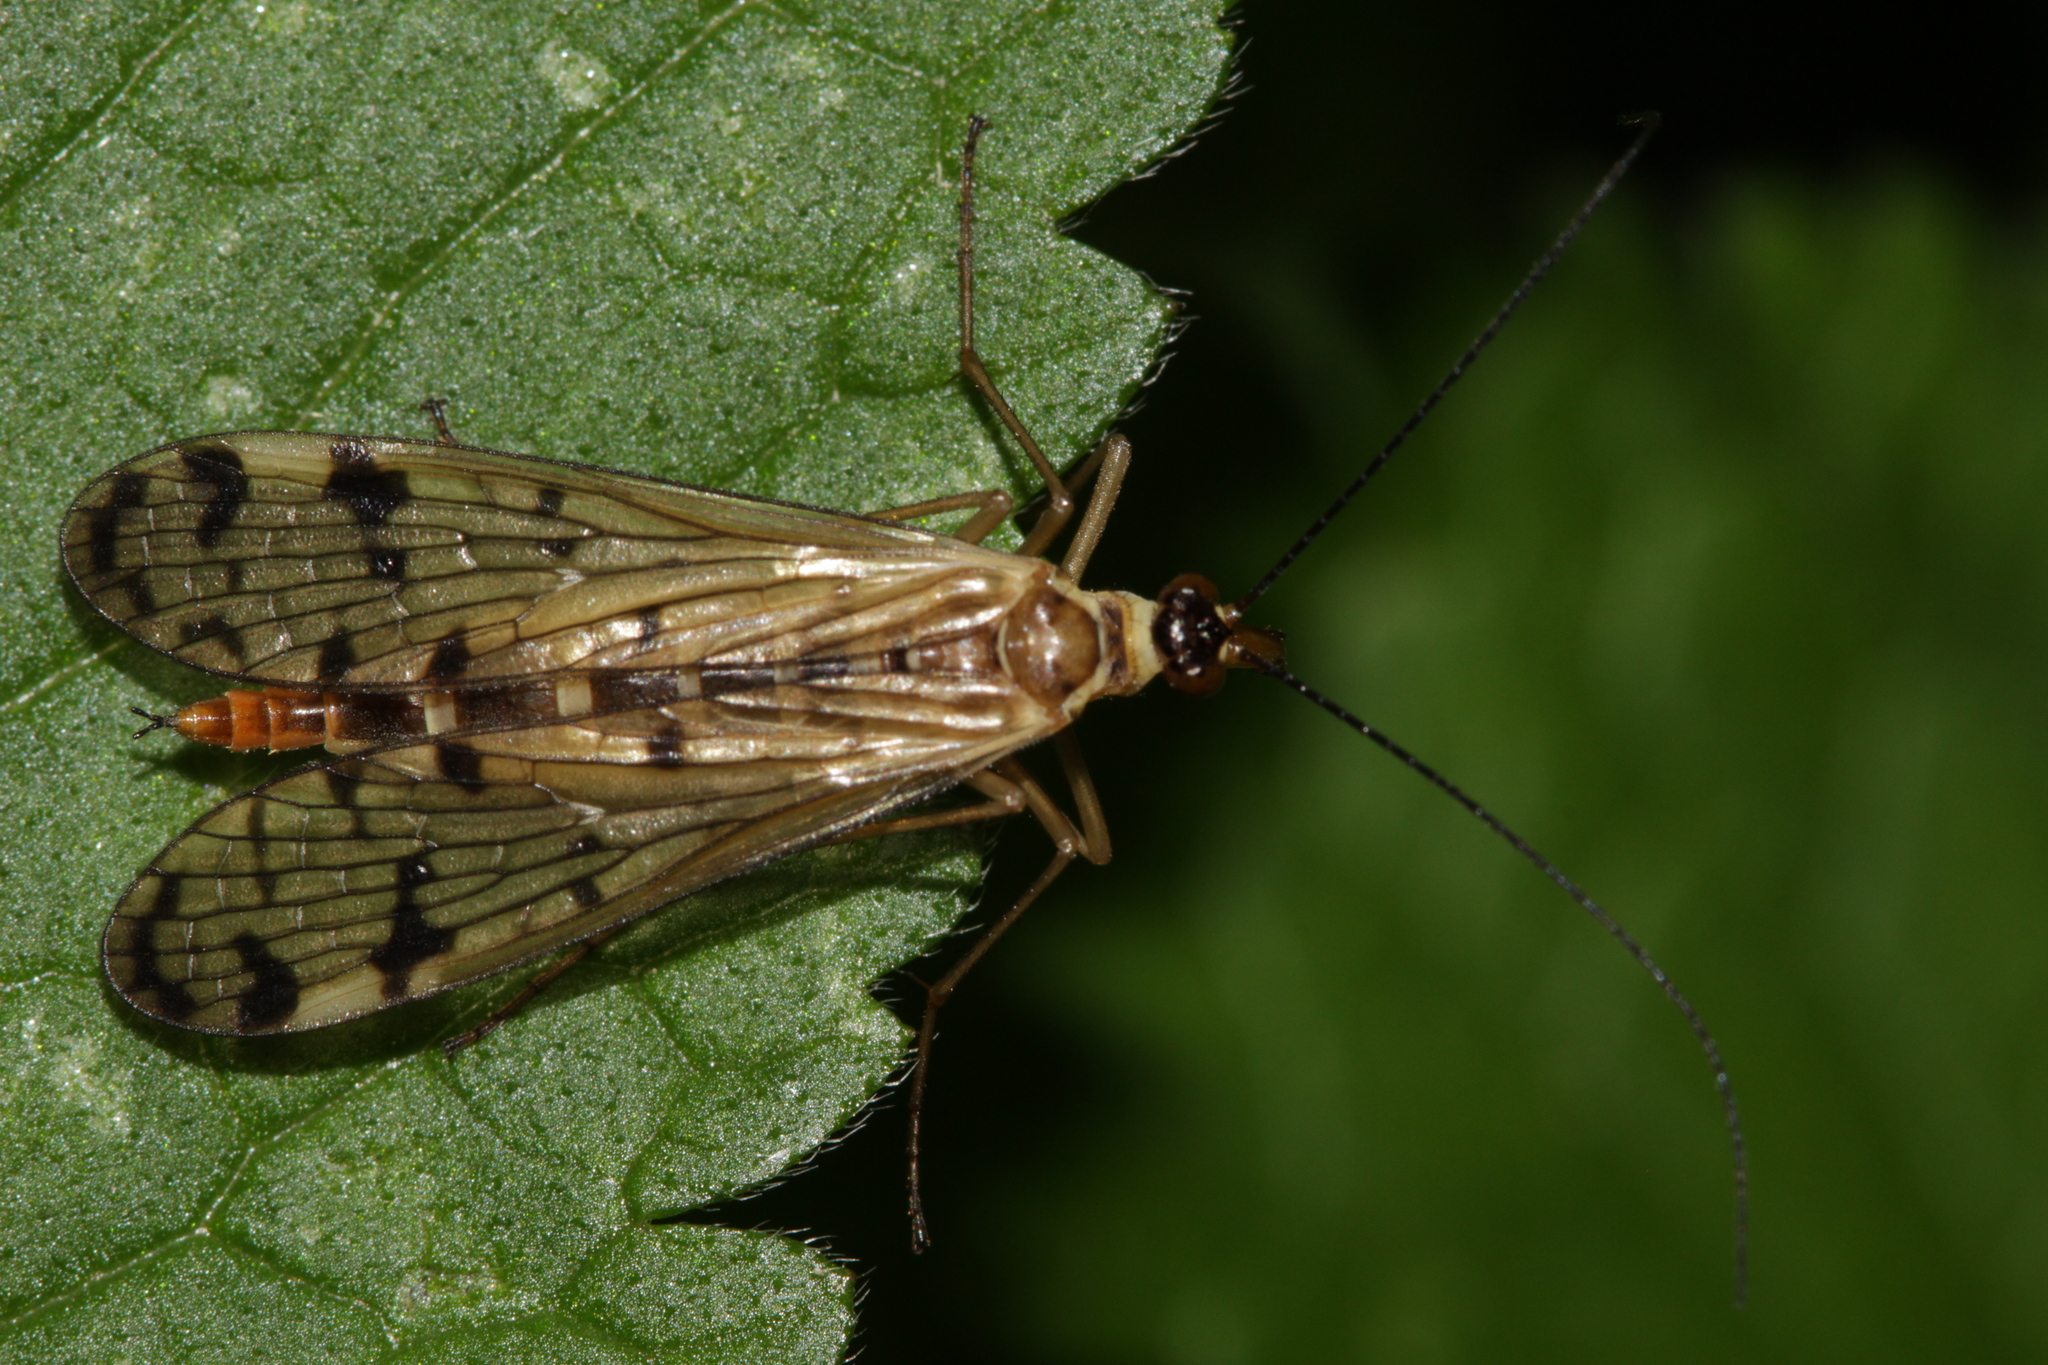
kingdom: Animalia
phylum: Arthropoda
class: Insecta
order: Mecoptera
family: Panorpidae
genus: Panorpa
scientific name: Panorpa alpina
